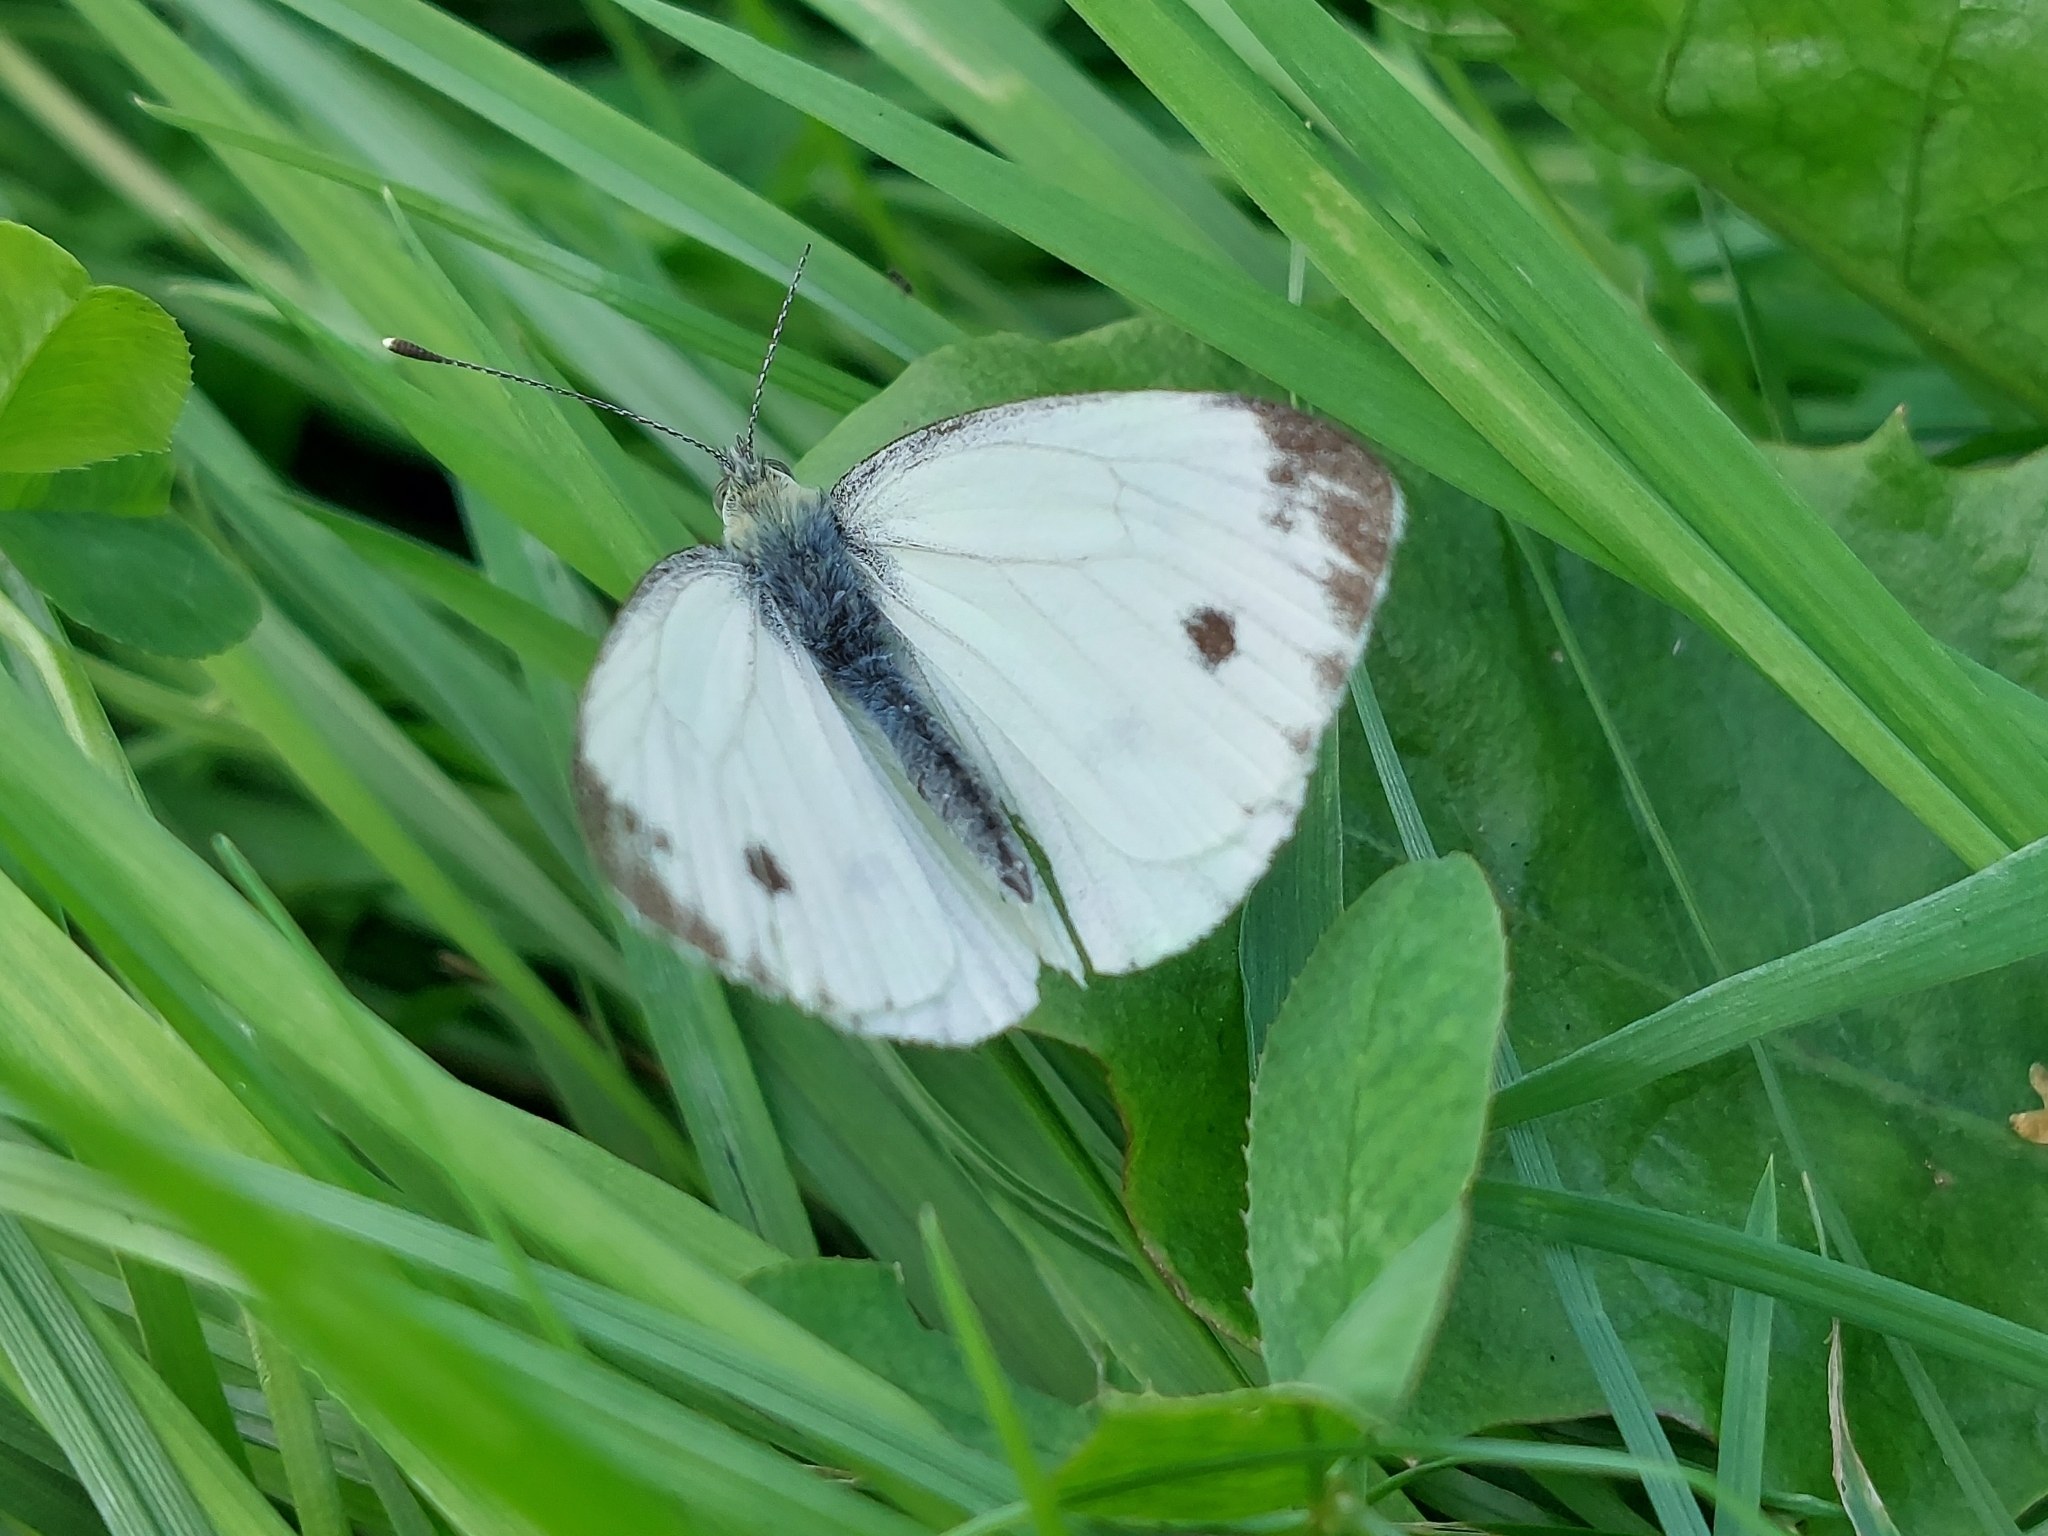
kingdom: Animalia
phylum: Arthropoda
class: Insecta
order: Lepidoptera
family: Pieridae
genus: Pieris
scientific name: Pieris napi
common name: Green-veined white
